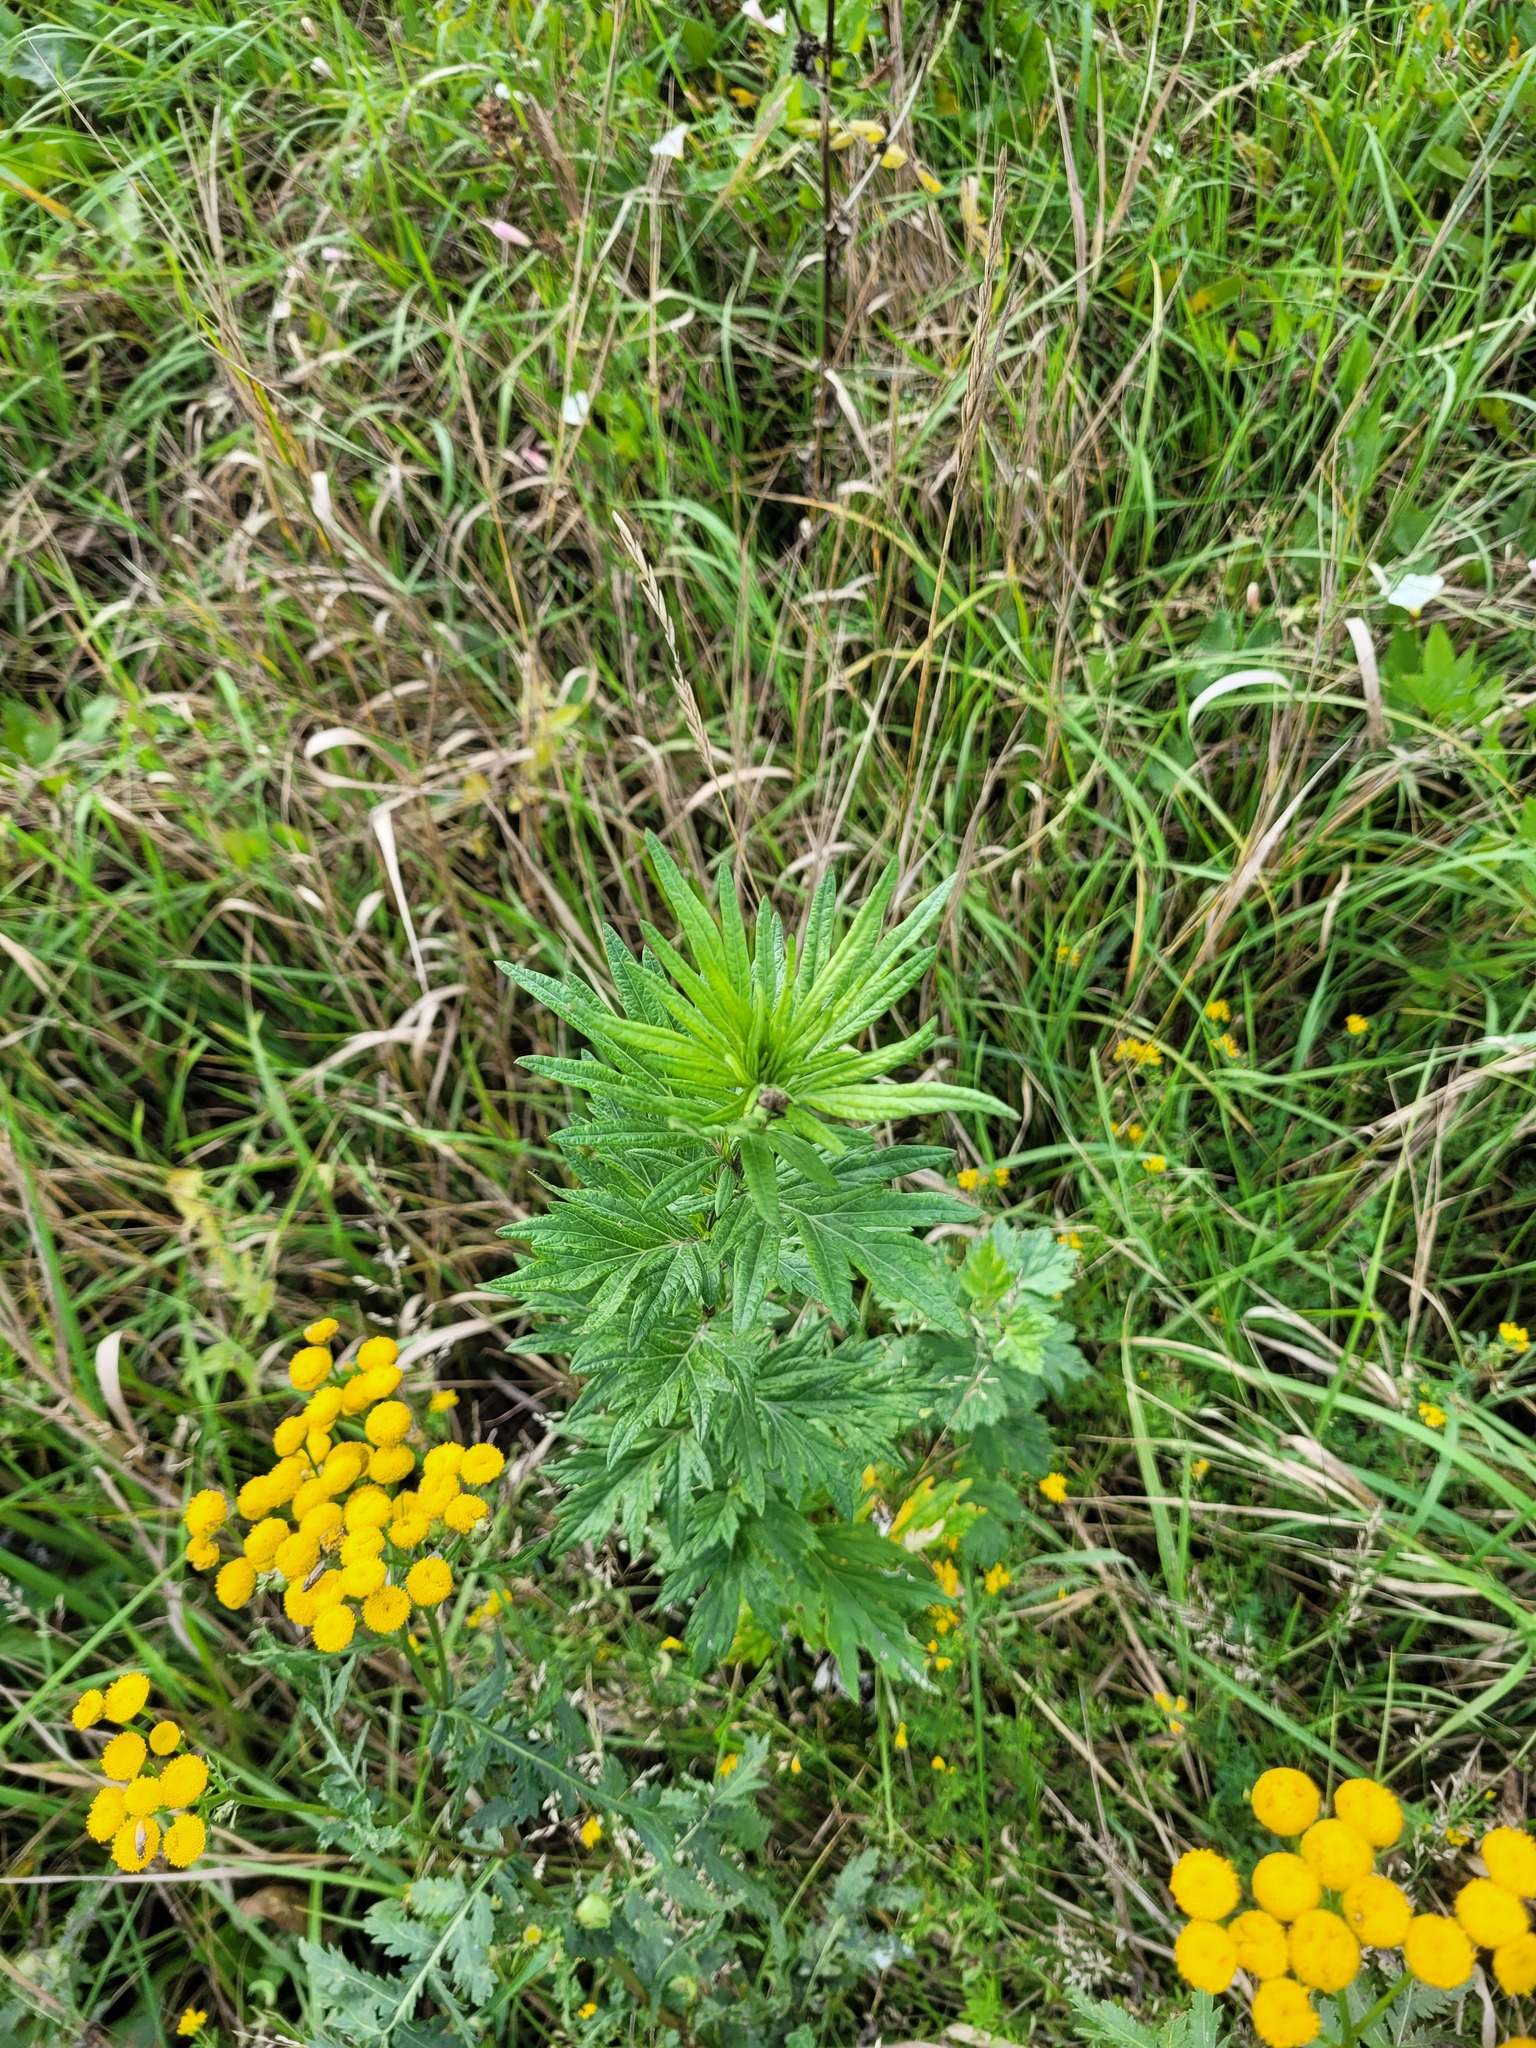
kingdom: Plantae
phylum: Tracheophyta
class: Magnoliopsida
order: Asterales
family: Asteraceae
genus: Artemisia
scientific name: Artemisia vulgaris
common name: Mugwort
